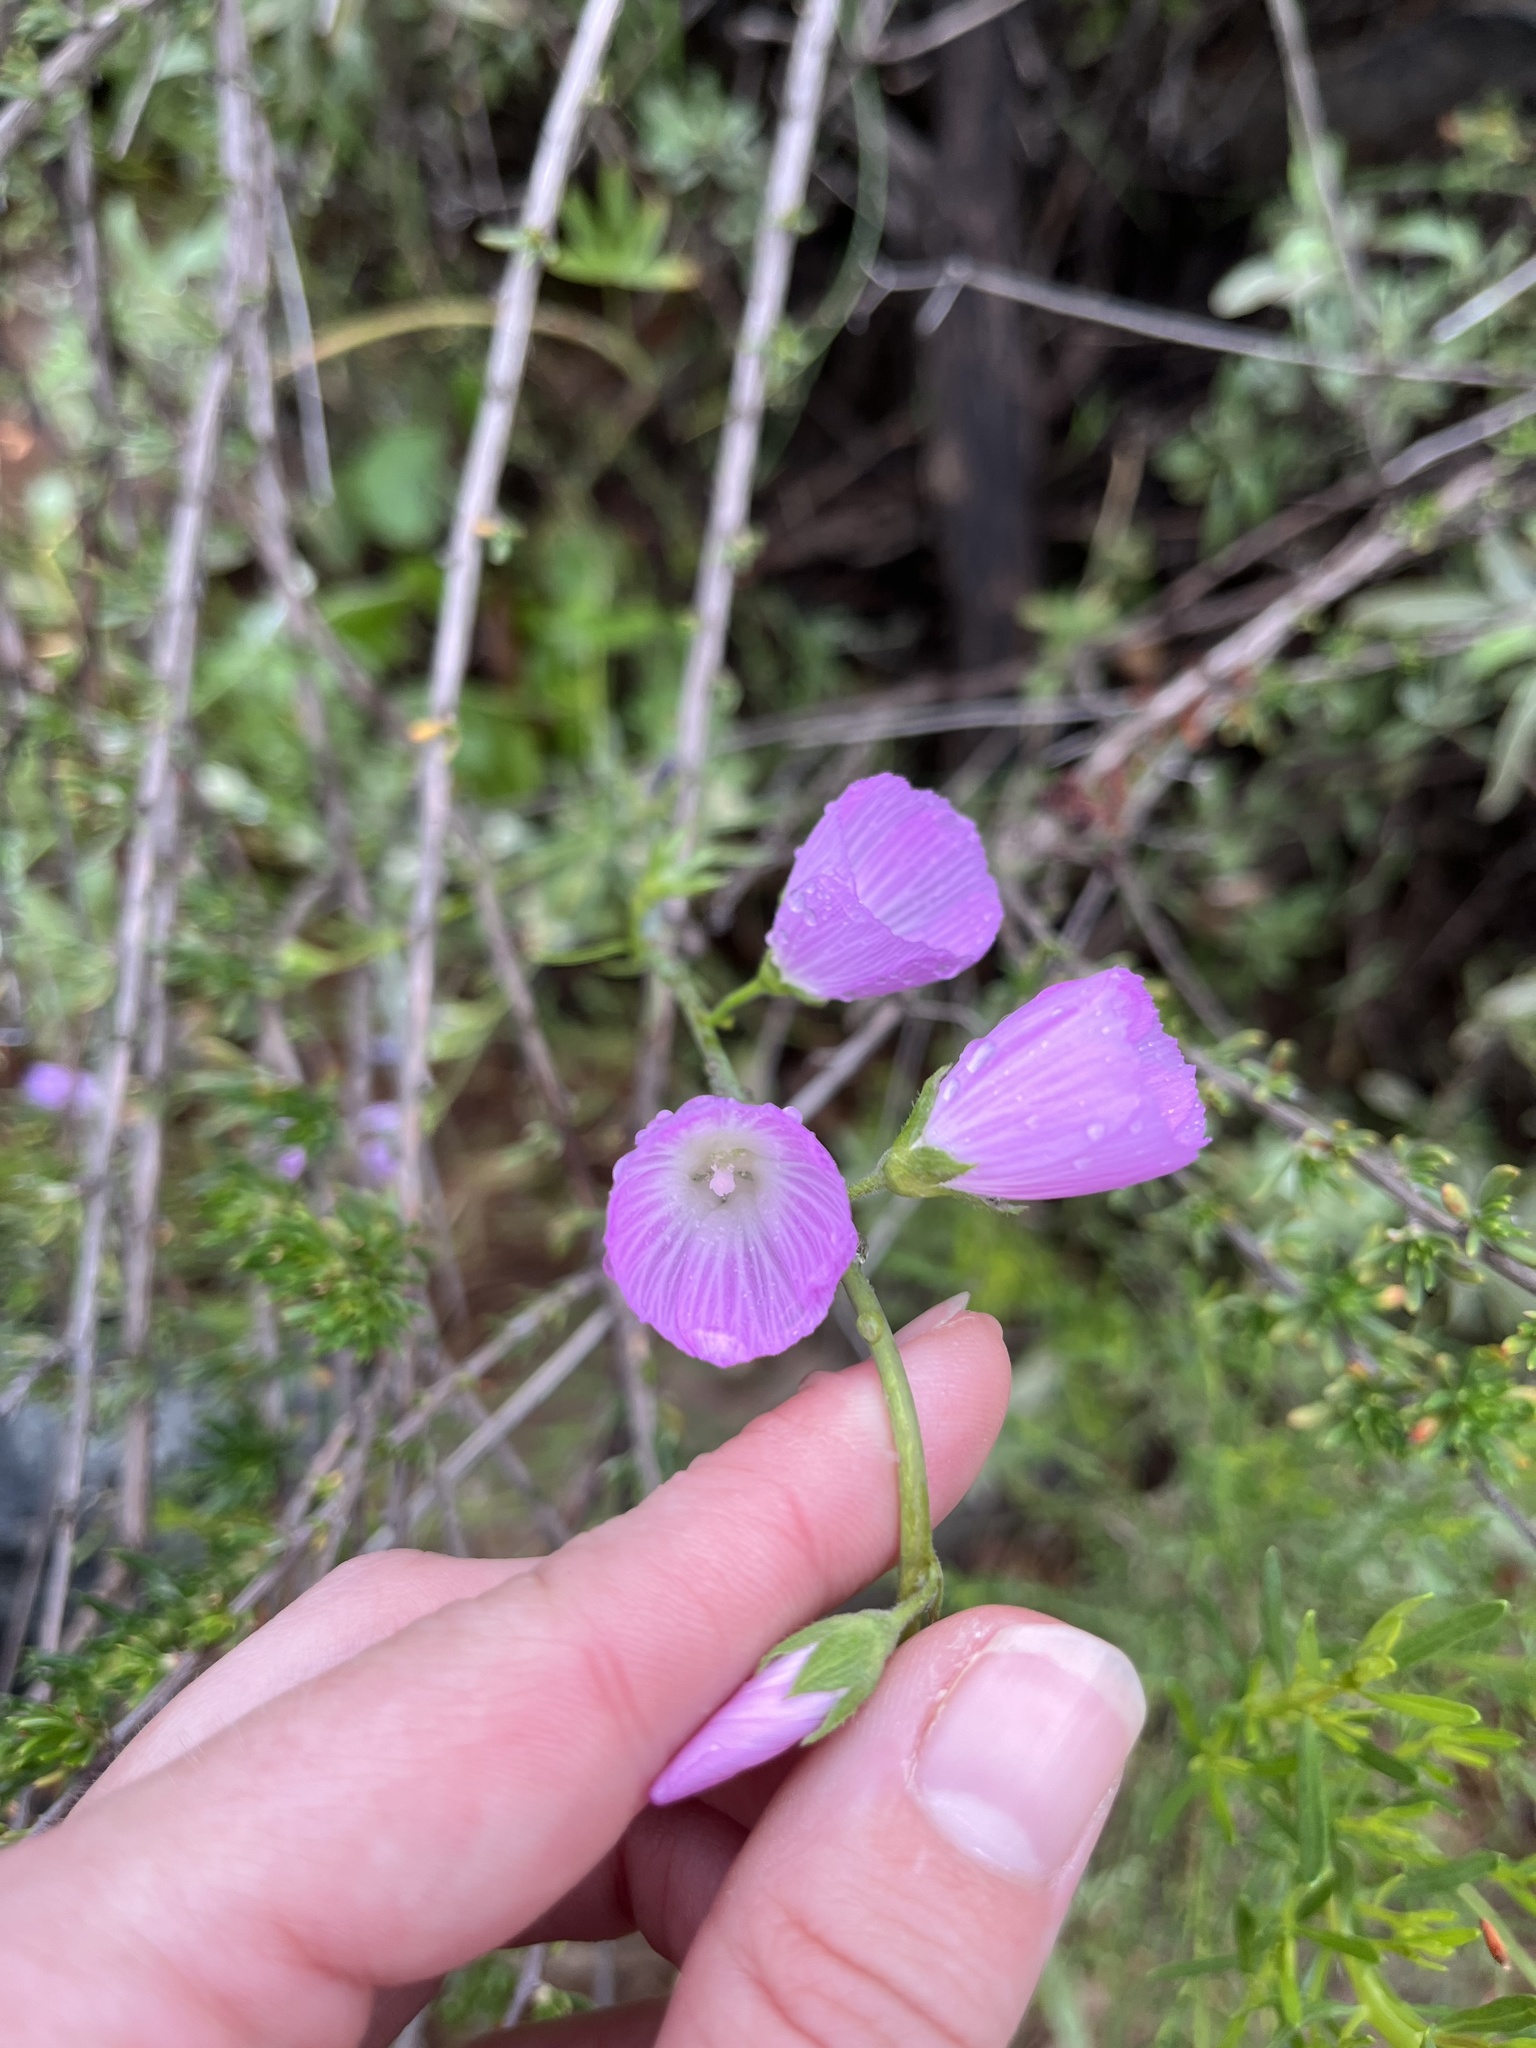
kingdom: Plantae
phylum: Tracheophyta
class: Magnoliopsida
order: Malvales
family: Malvaceae
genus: Sidalcea
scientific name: Sidalcea sparsifolia
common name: Southern checkerbloom
